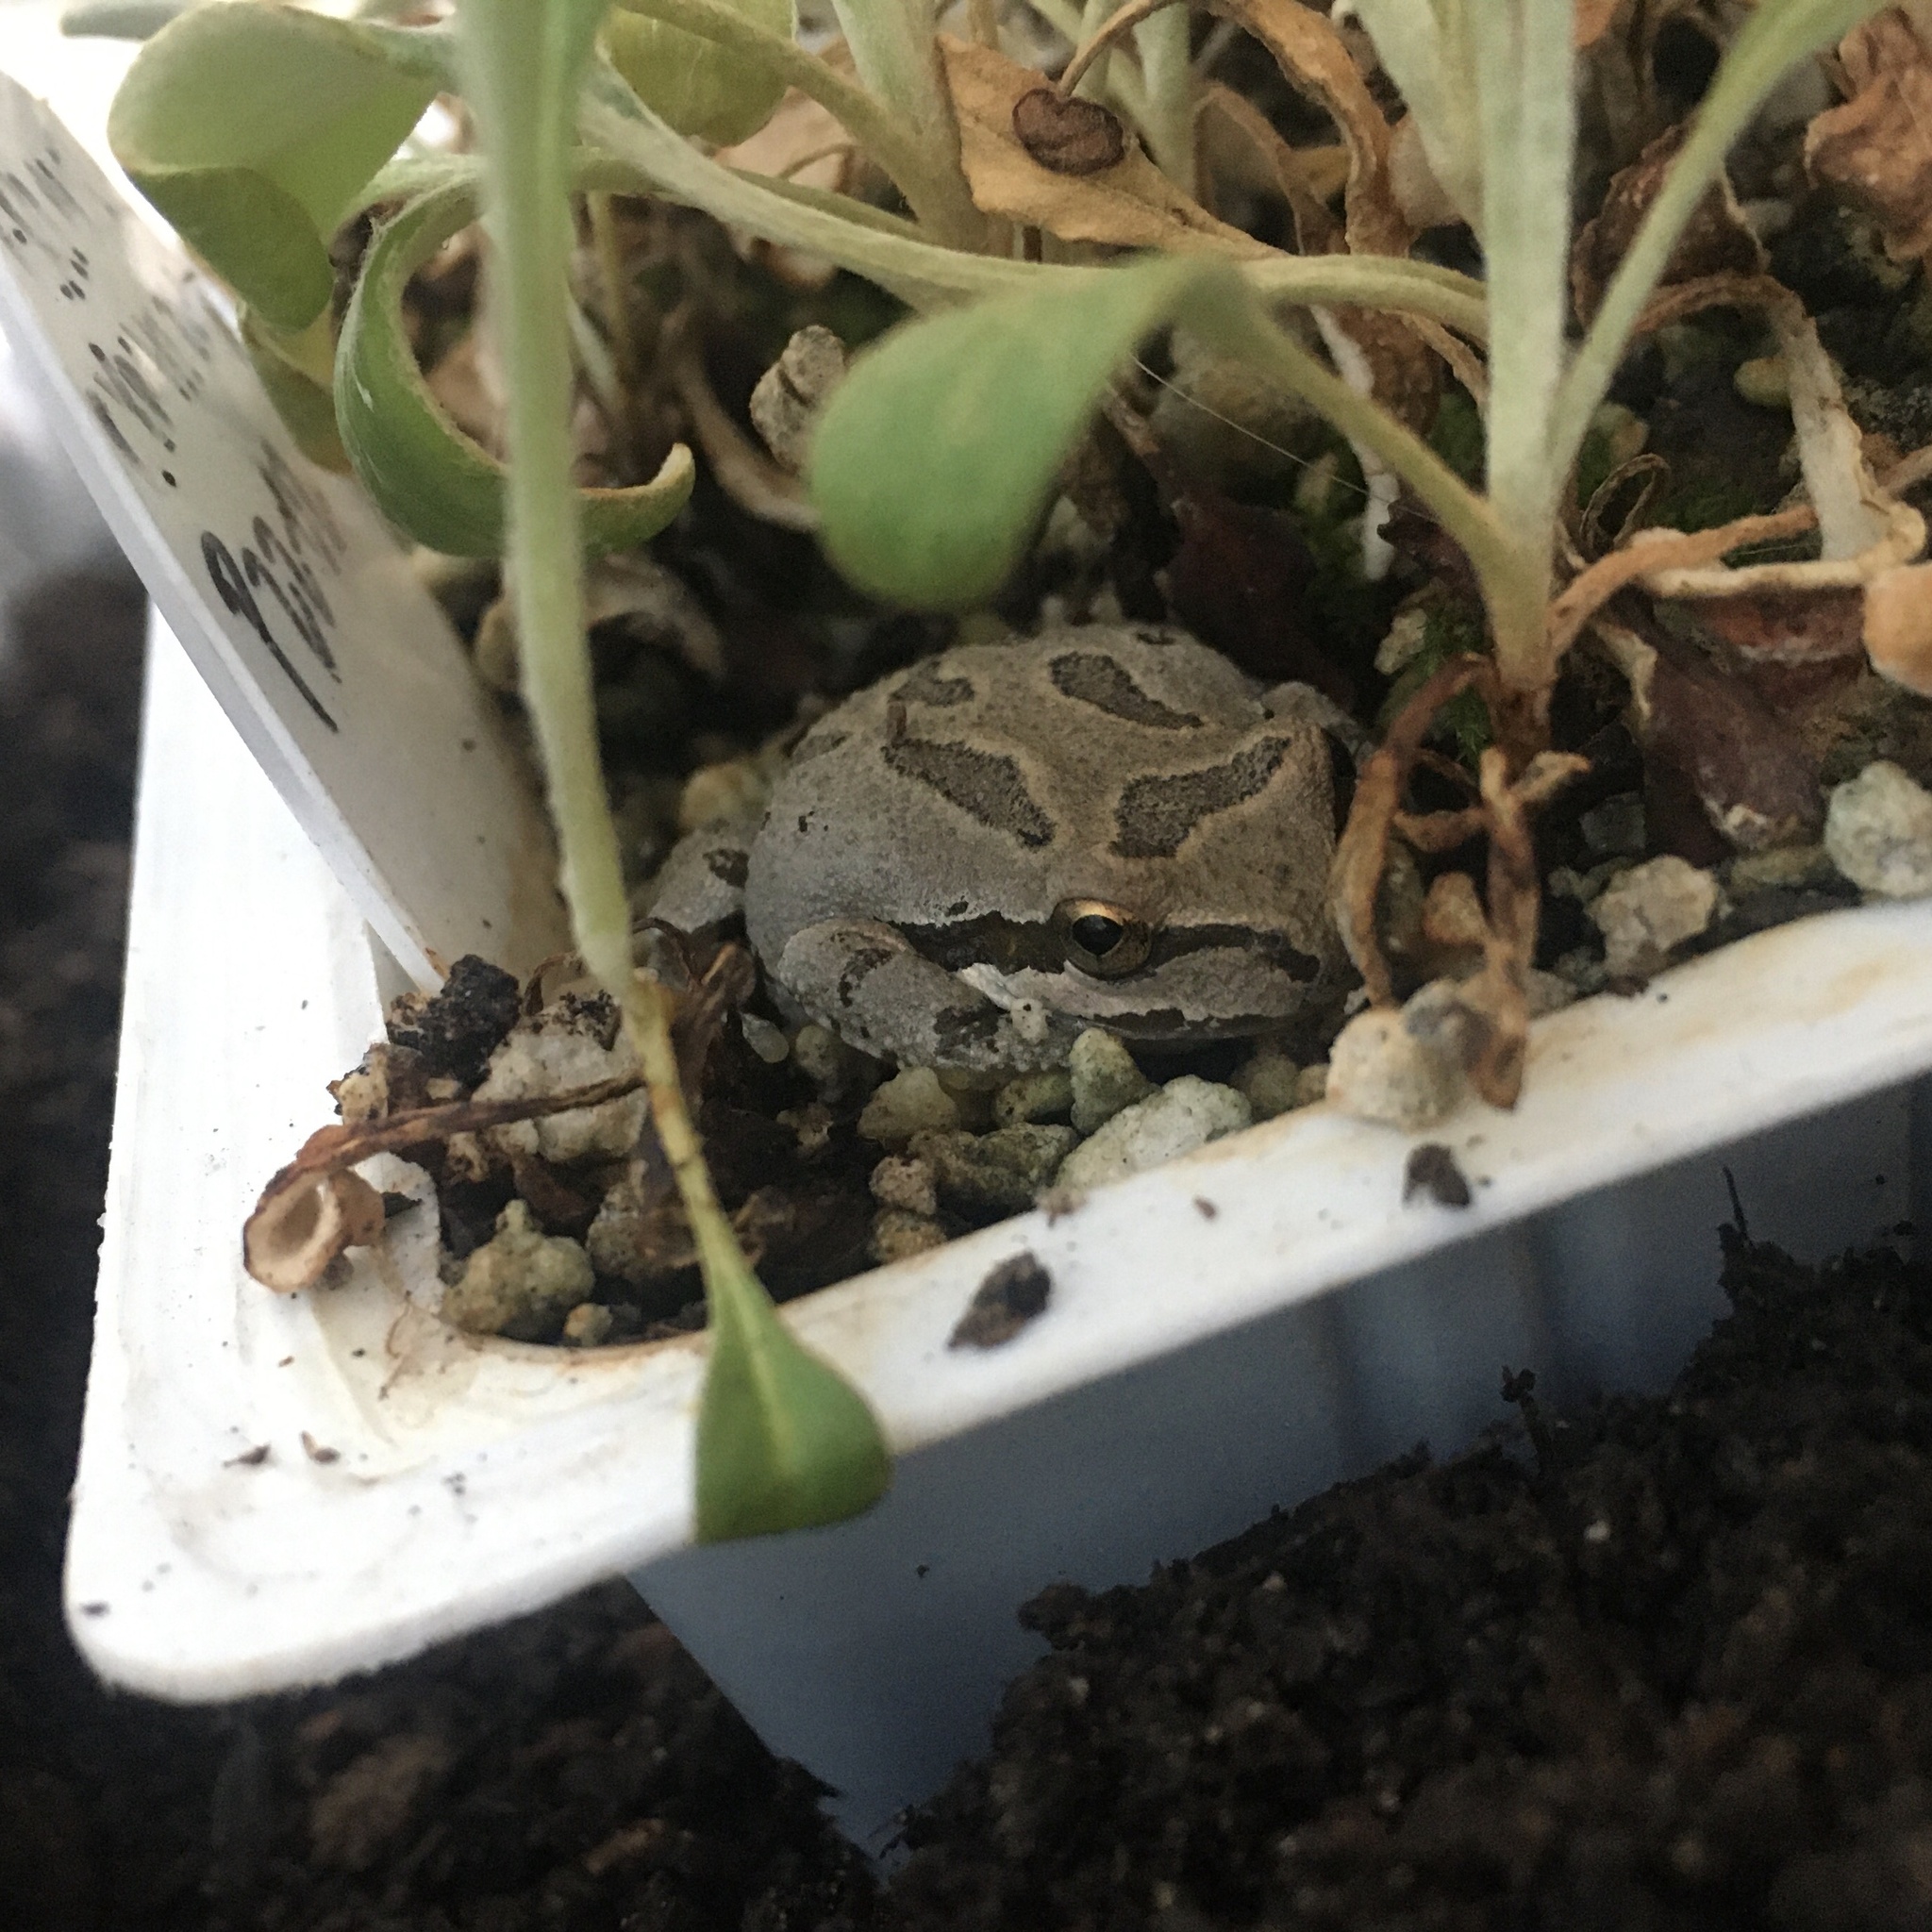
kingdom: Animalia
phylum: Chordata
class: Amphibia
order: Anura
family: Hylidae
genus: Pseudacris
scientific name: Pseudacris regilla
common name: Pacific chorus frog
